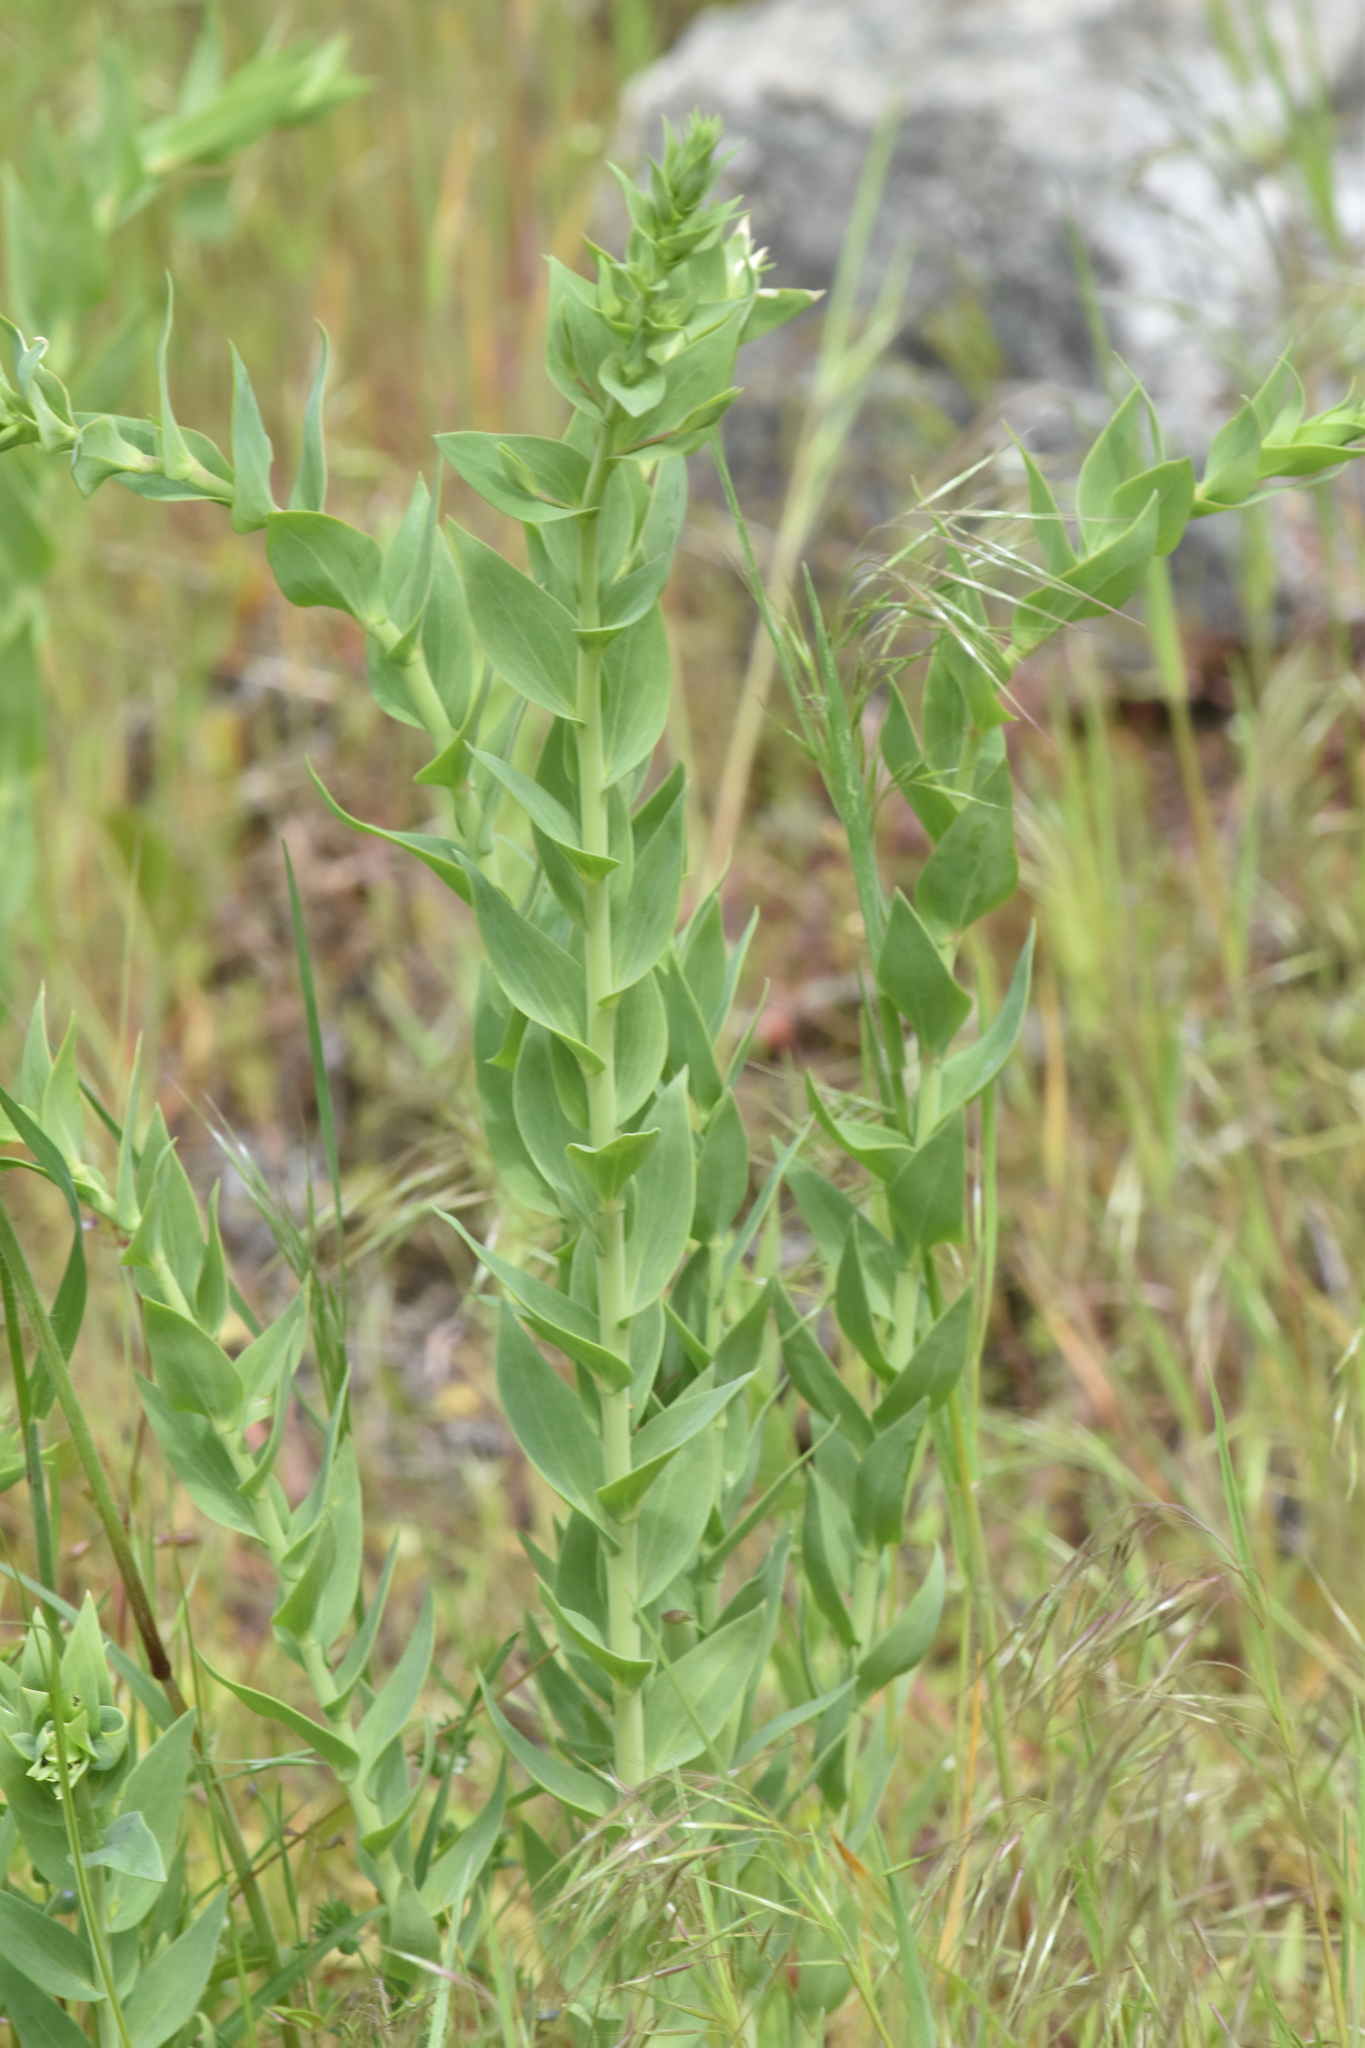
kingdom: Plantae
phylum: Tracheophyta
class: Magnoliopsida
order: Lamiales
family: Plantaginaceae
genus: Linaria
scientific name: Linaria dalmatica
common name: Dalmatian toadflax
